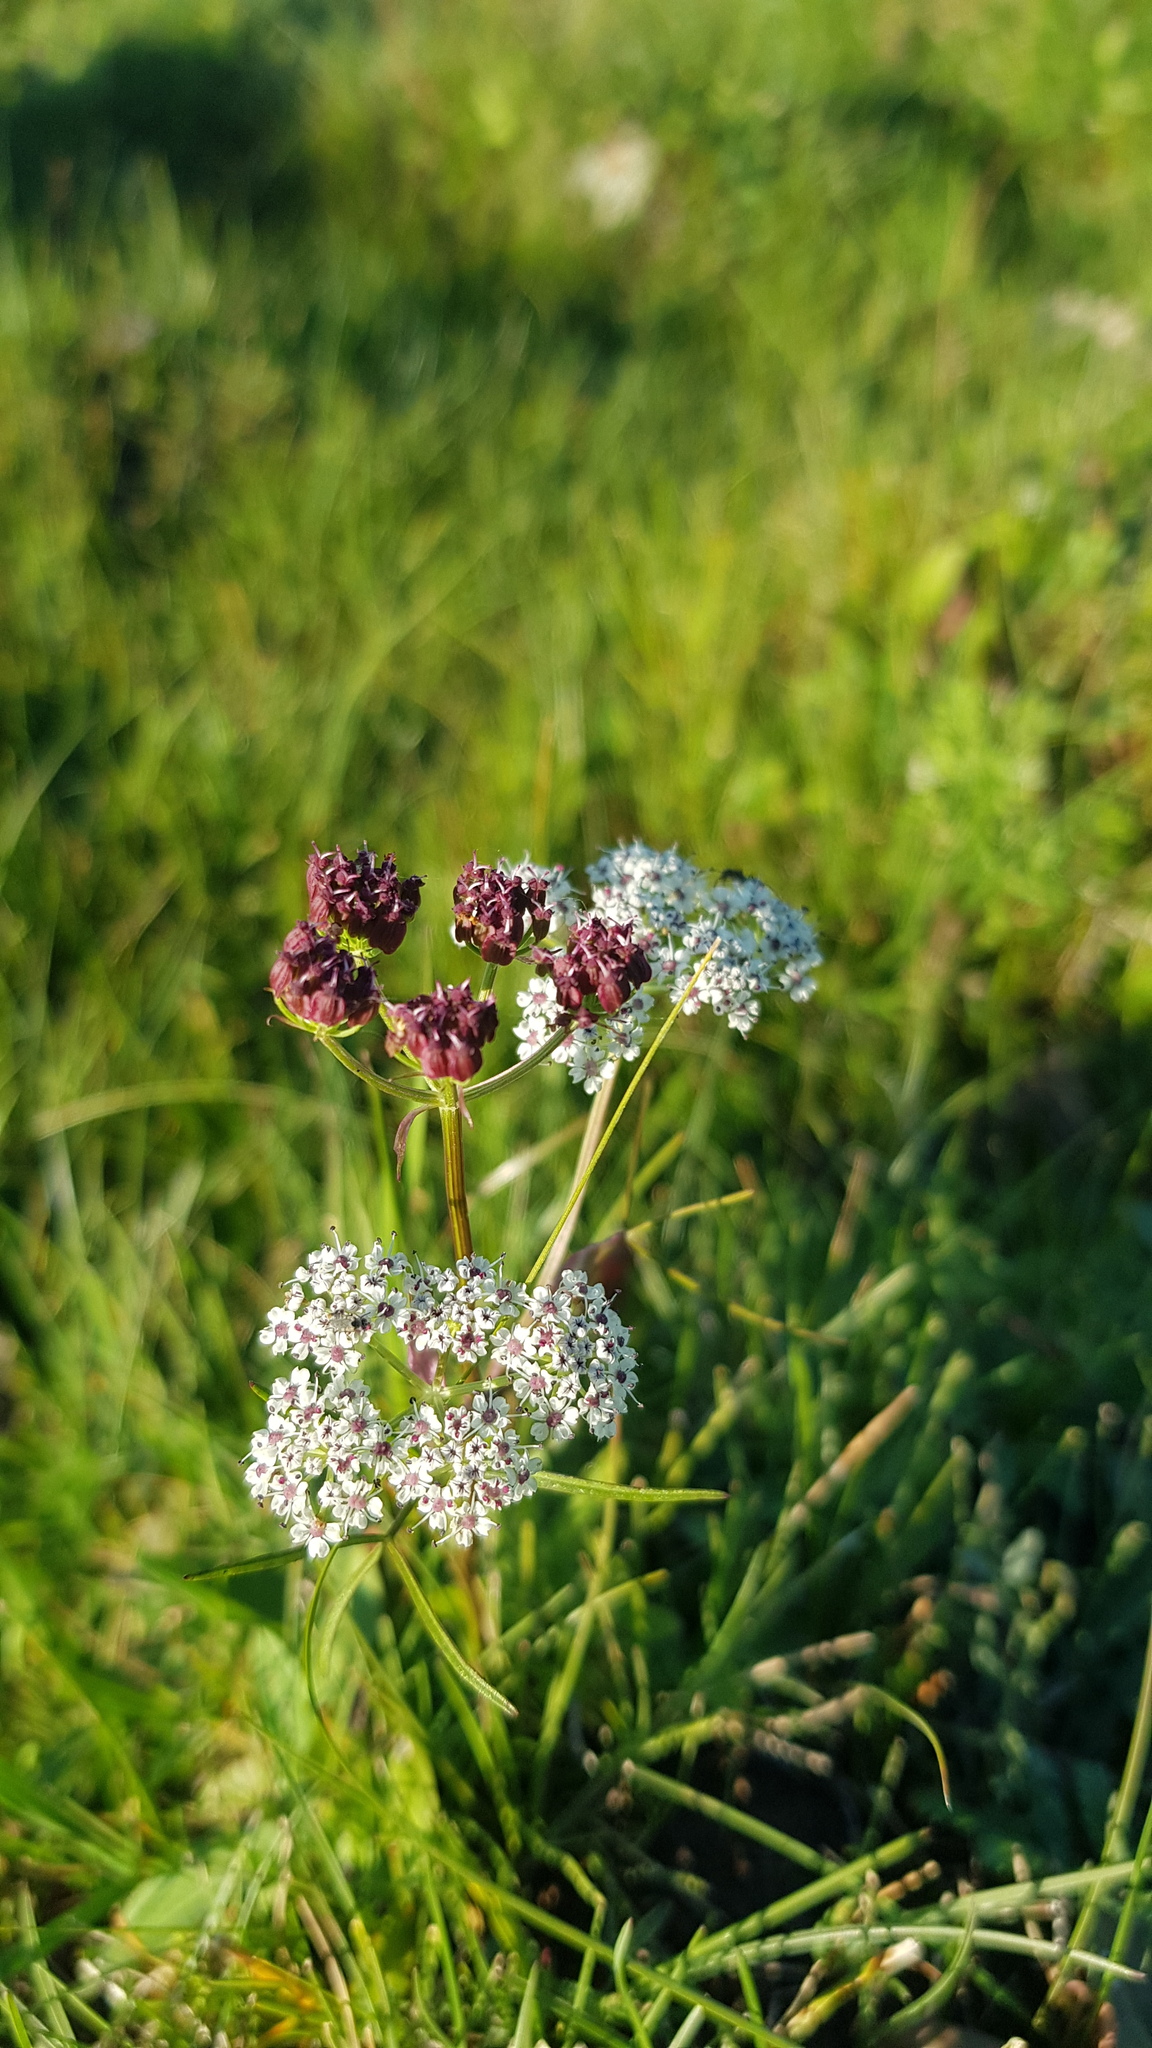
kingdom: Plantae
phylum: Tracheophyta
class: Magnoliopsida
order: Apiales
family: Apiaceae
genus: Ostericum
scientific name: Ostericum tenuifolium
